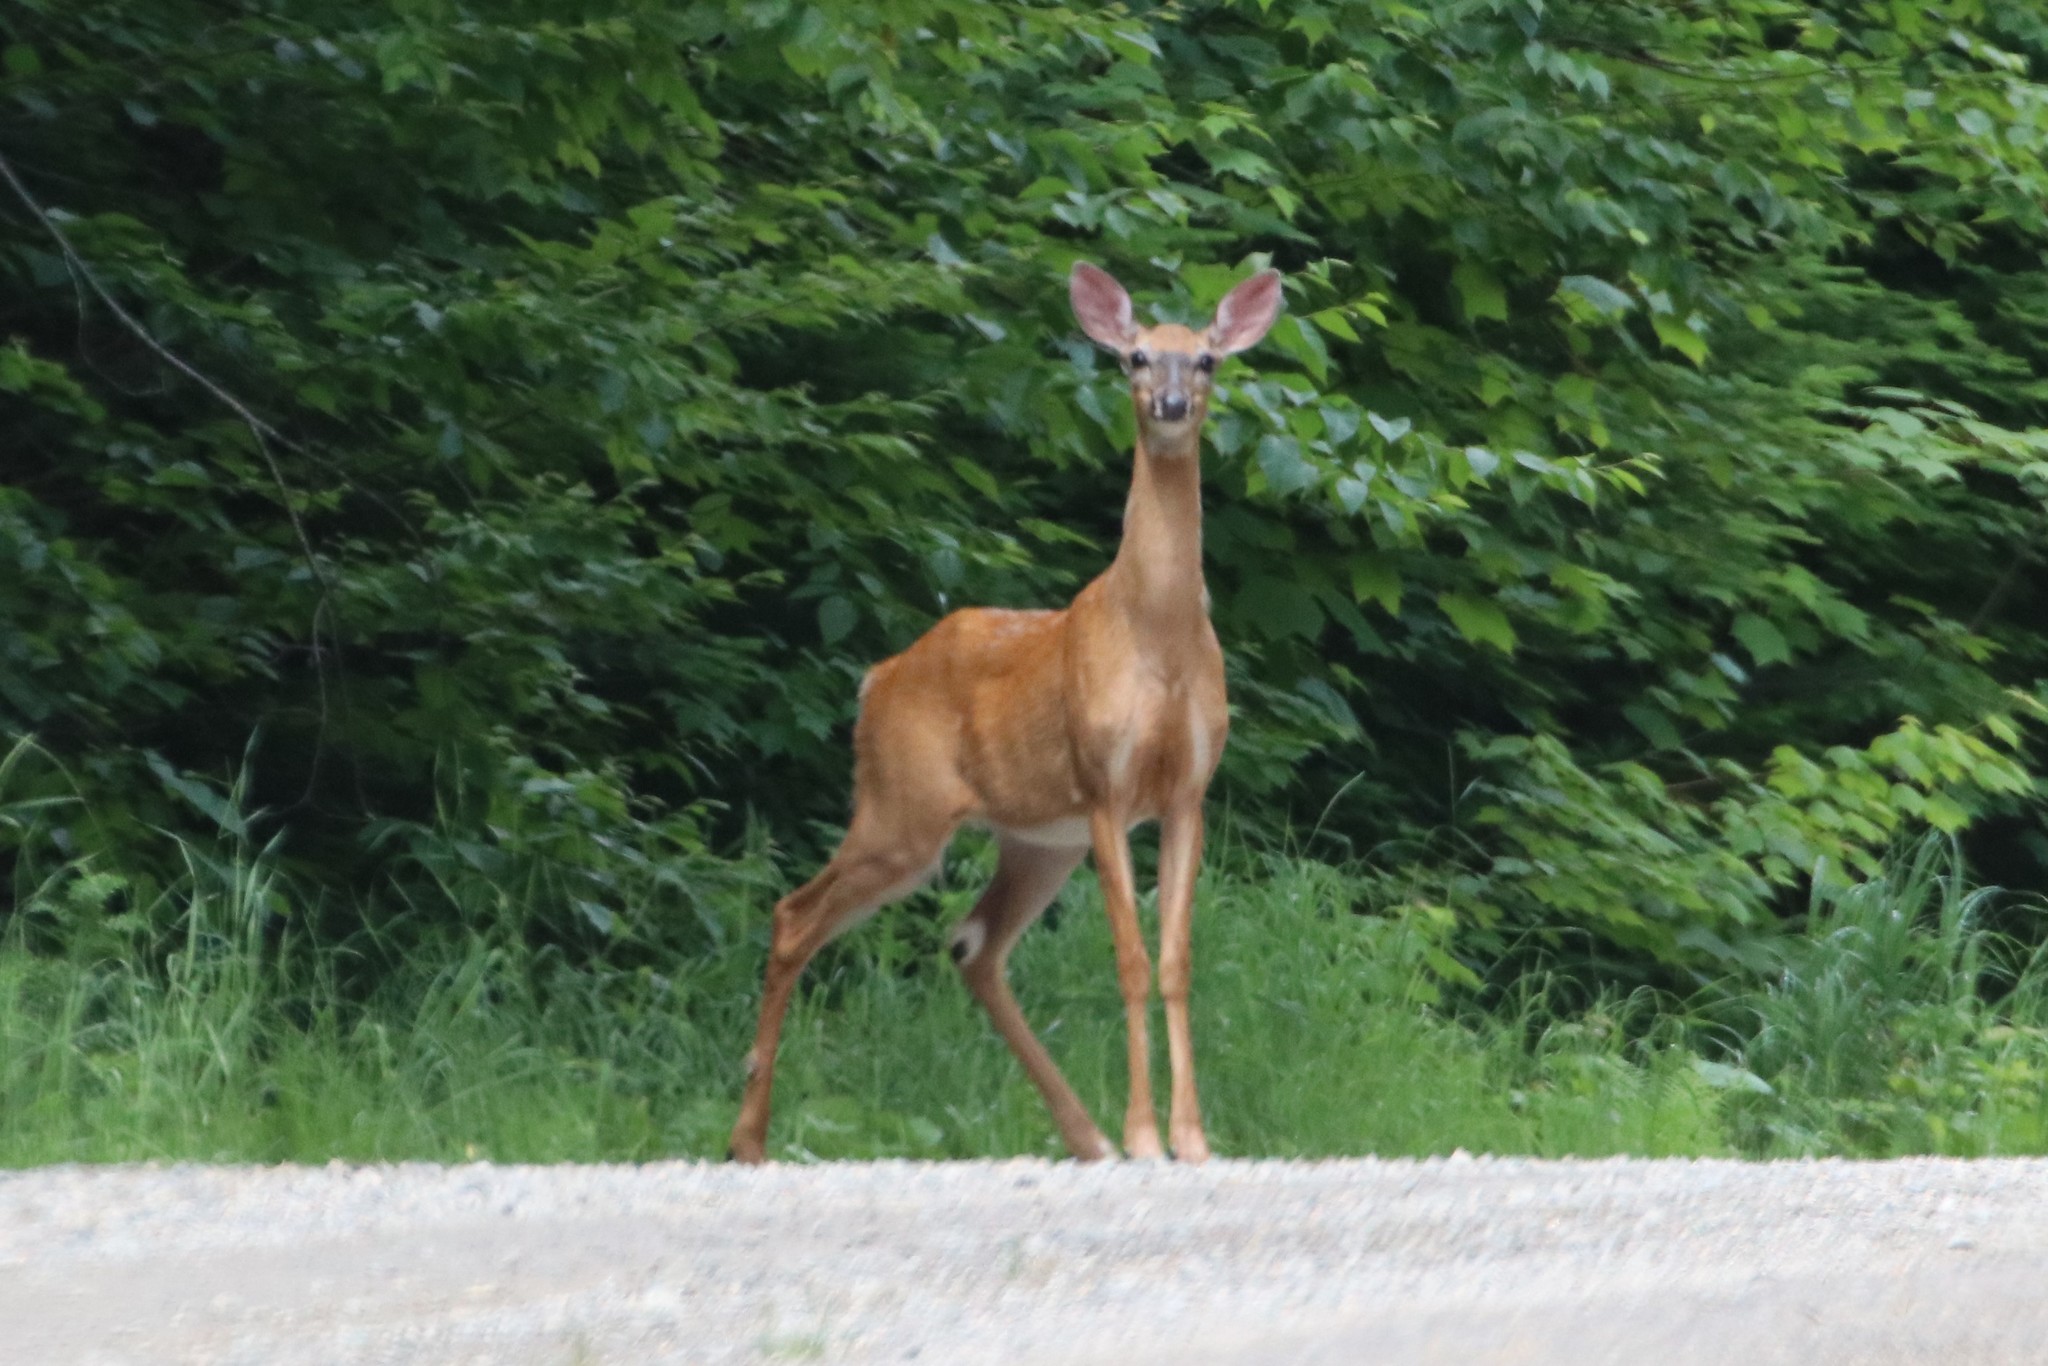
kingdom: Animalia
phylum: Chordata
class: Mammalia
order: Artiodactyla
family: Cervidae
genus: Odocoileus
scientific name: Odocoileus virginianus
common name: White-tailed deer
